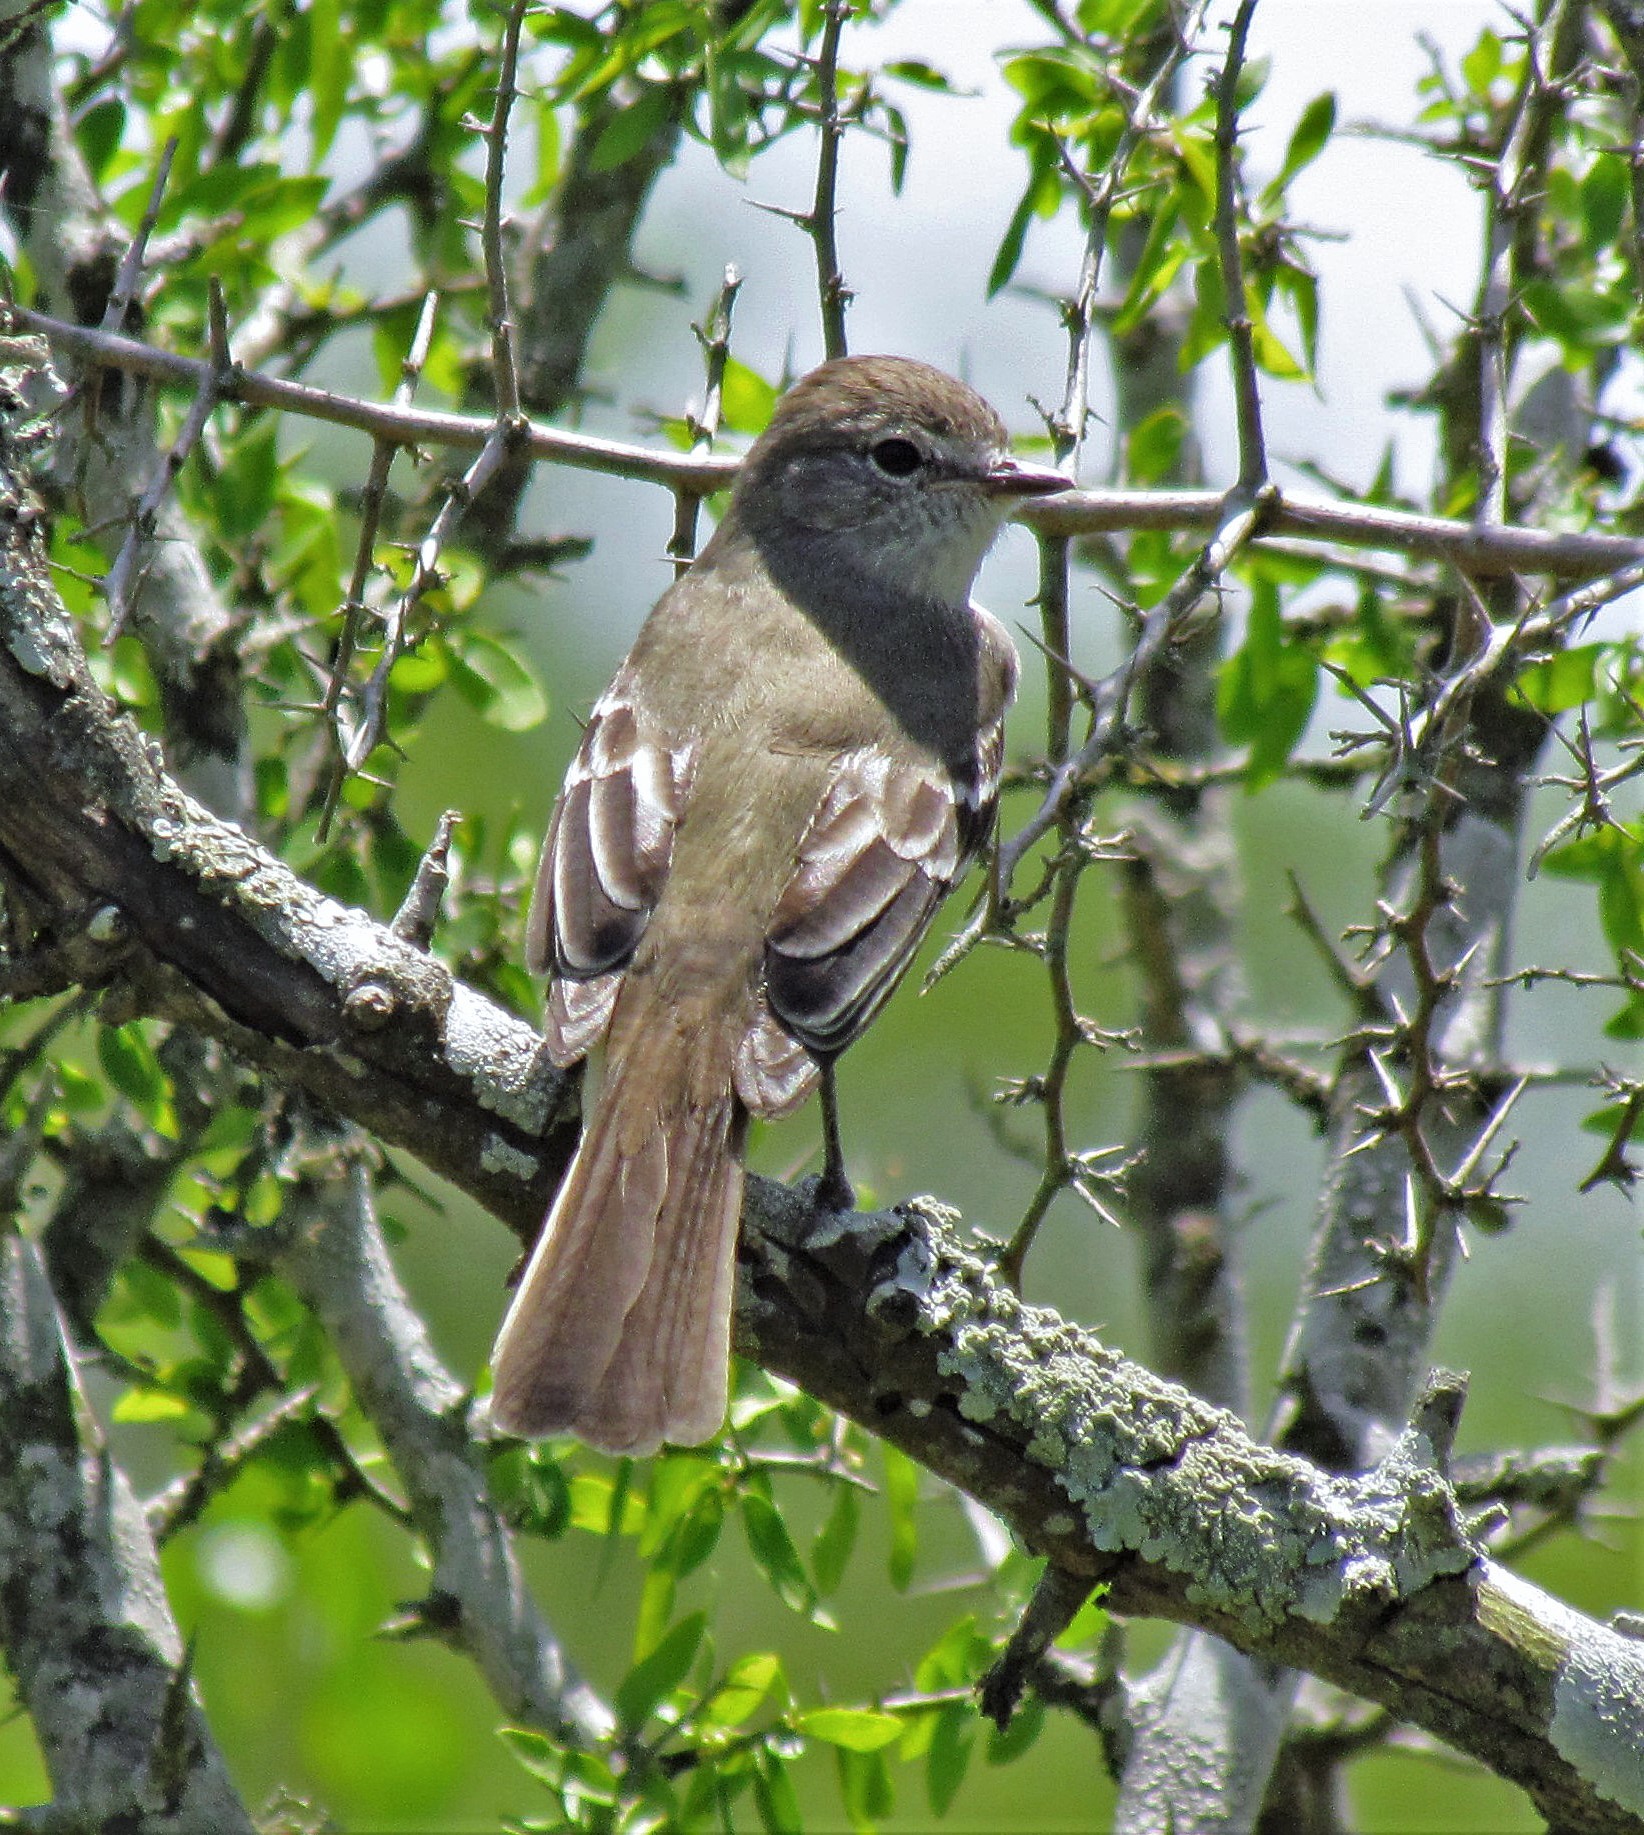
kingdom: Animalia
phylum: Chordata
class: Aves
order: Passeriformes
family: Tyrannidae
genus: Elaenia
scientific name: Elaenia parvirostris
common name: Small-billed elaenia
